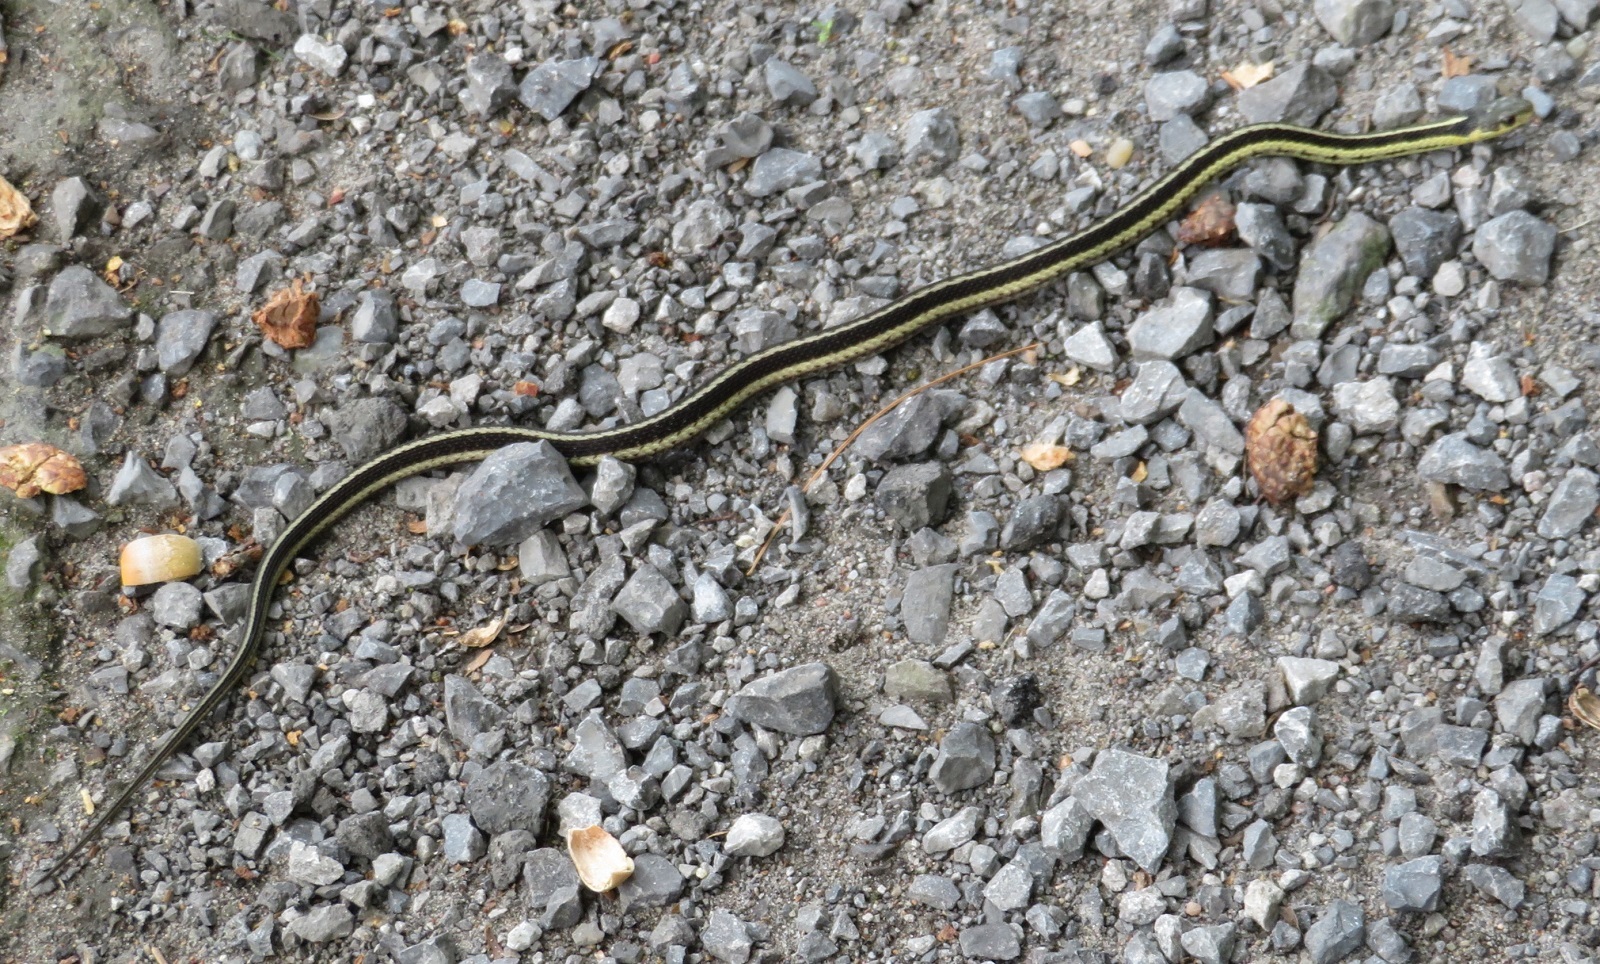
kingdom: Animalia
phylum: Chordata
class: Squamata
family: Colubridae
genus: Thamnophis
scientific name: Thamnophis sirtalis
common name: Common garter snake
